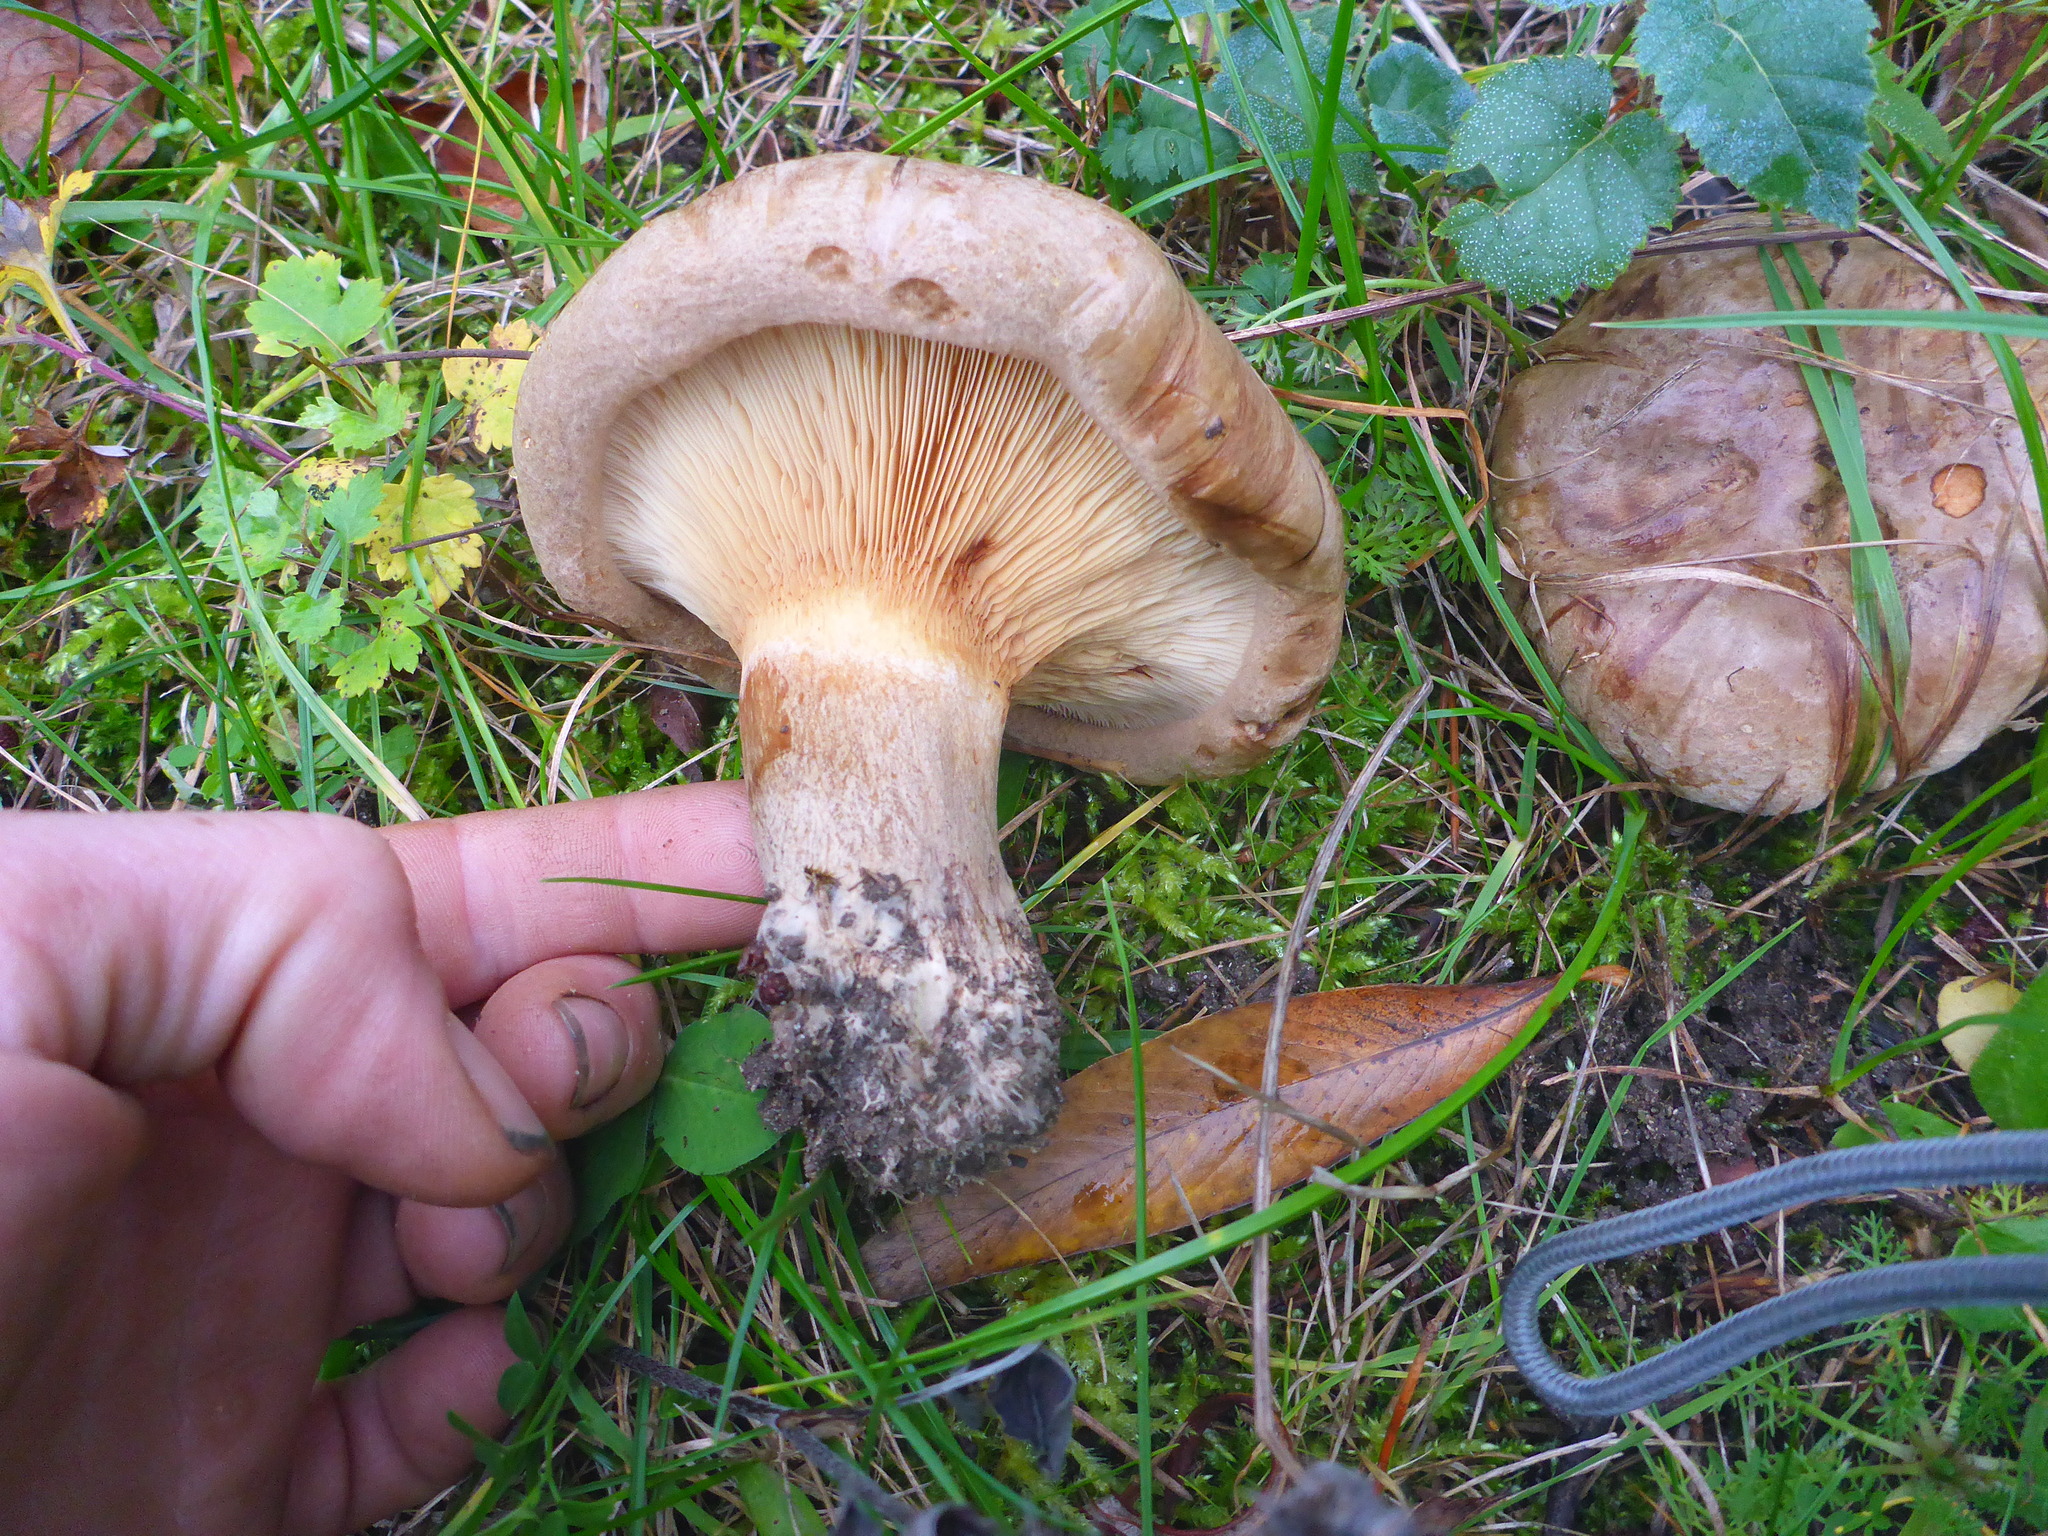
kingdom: Fungi
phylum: Basidiomycota
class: Agaricomycetes
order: Boletales
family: Paxillaceae
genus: Paxillus
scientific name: Paxillus involutus
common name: Brown roll rim
